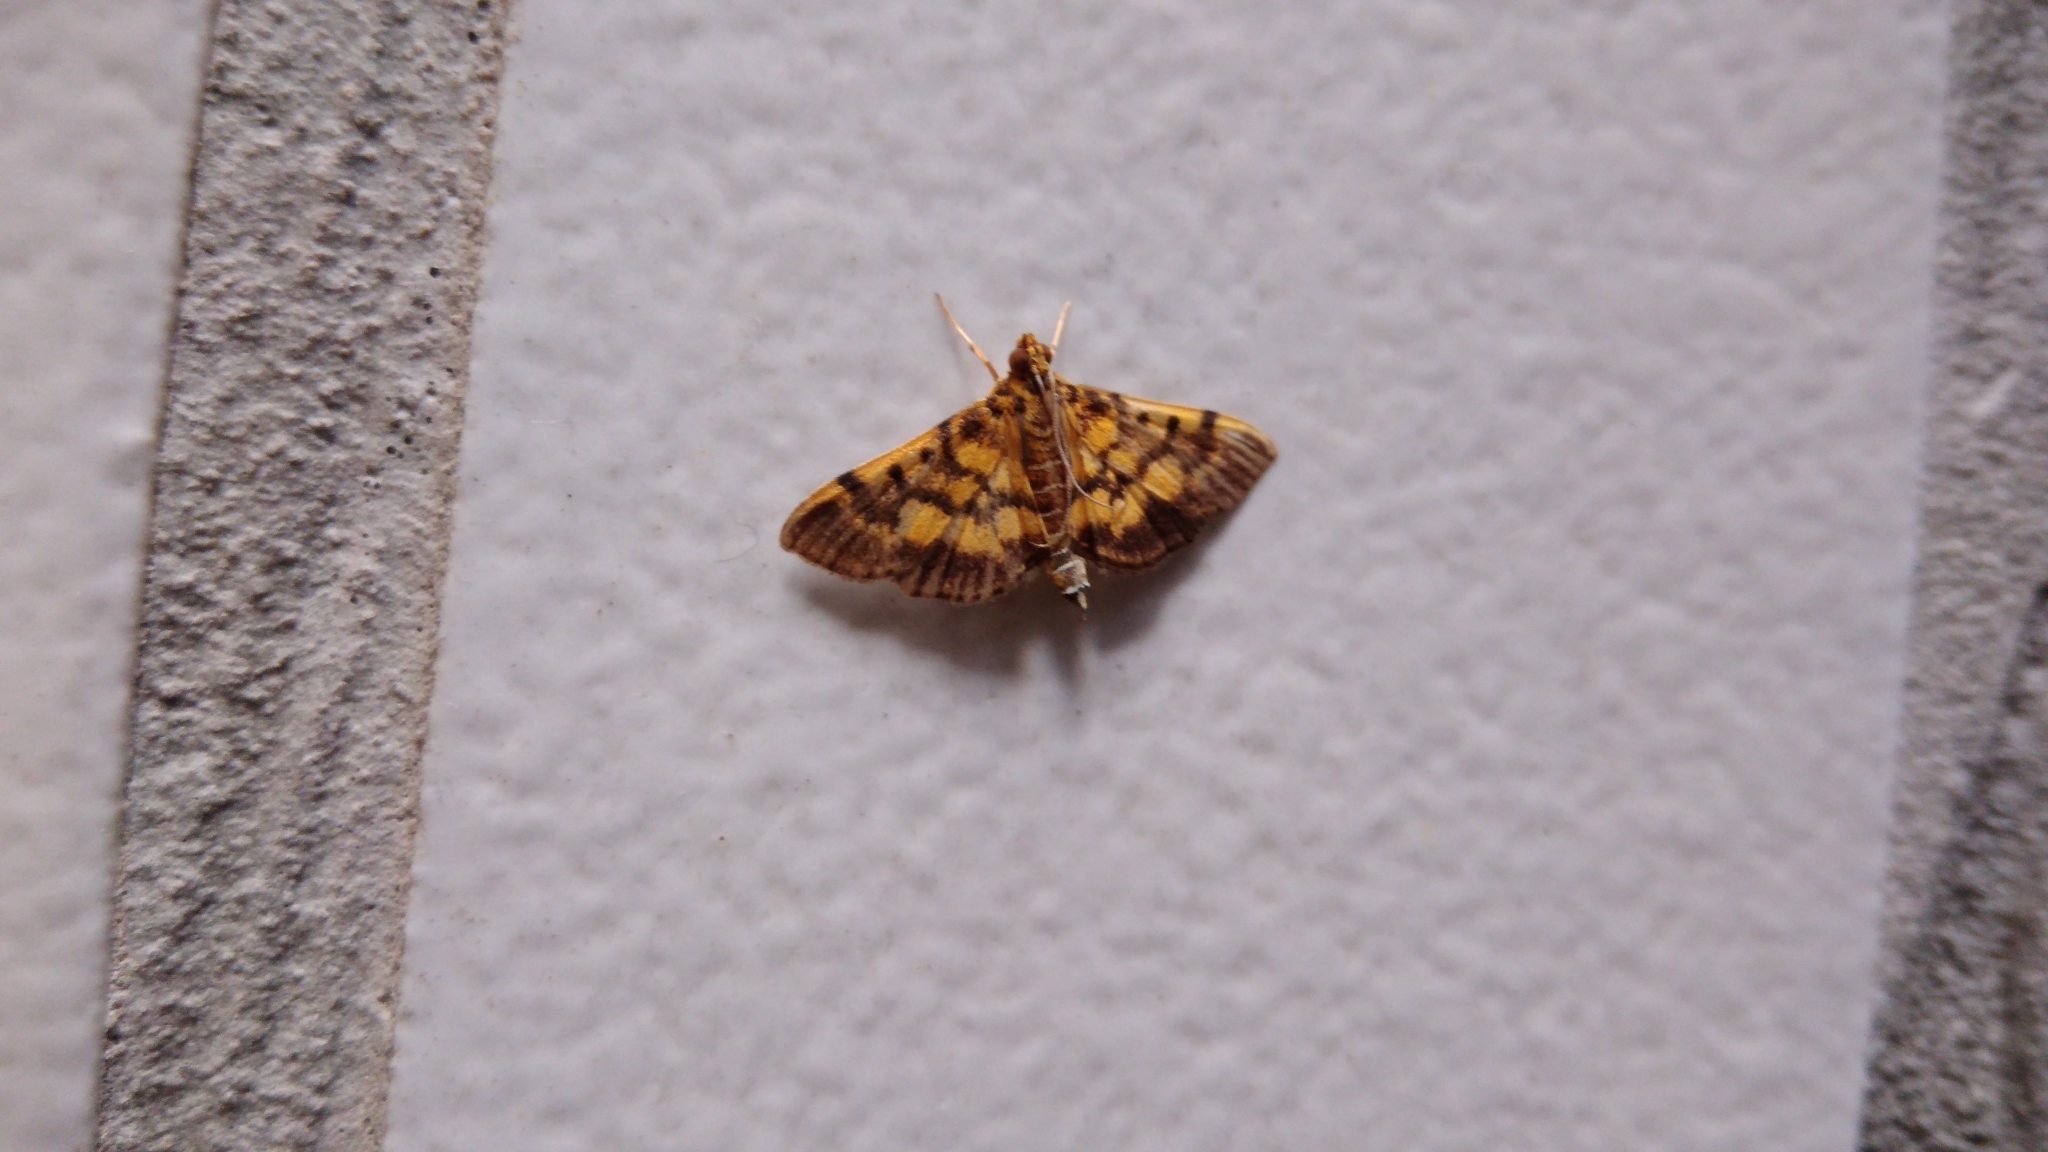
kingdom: Animalia
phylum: Arthropoda
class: Insecta
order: Lepidoptera
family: Crambidae
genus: Omiodes
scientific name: Omiodes diemenalis
